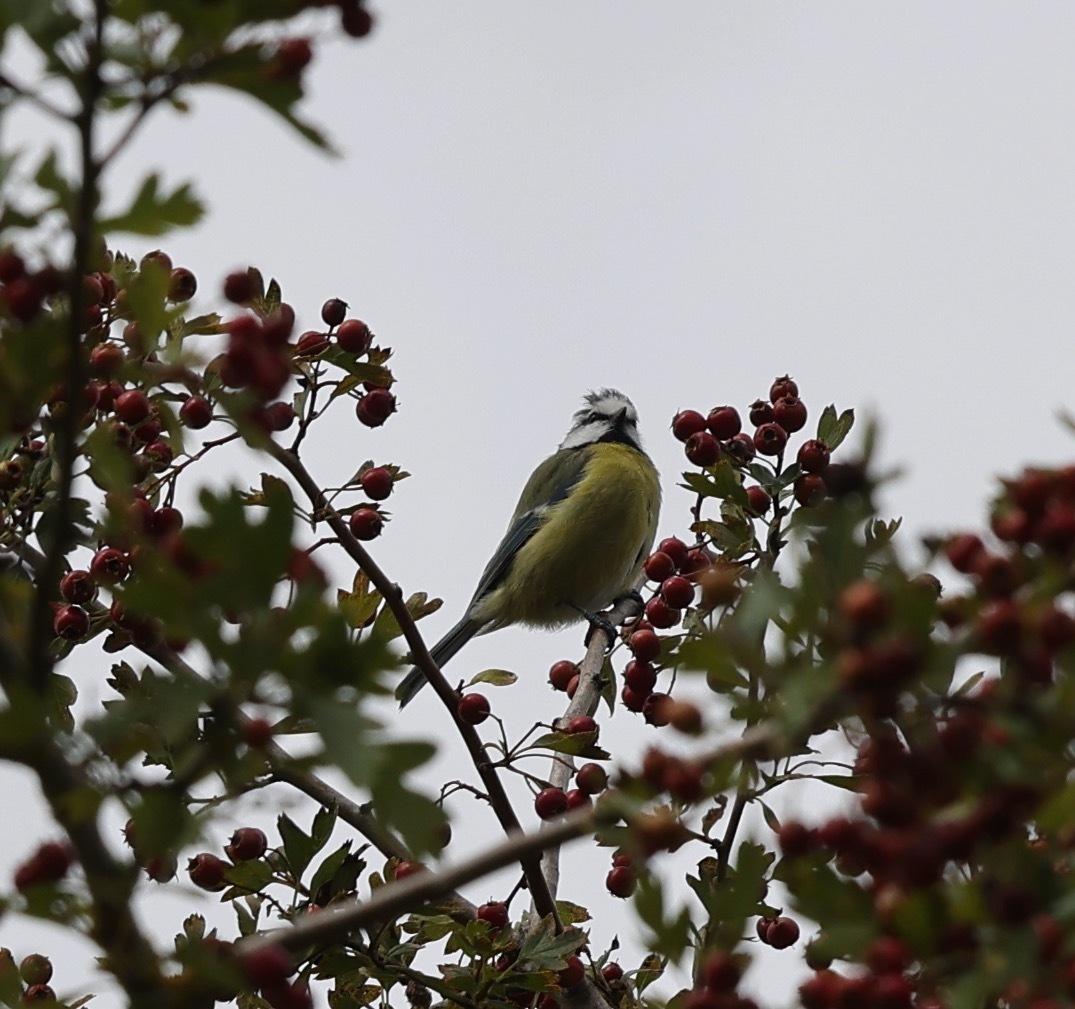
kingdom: Animalia
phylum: Chordata
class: Aves
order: Passeriformes
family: Paridae
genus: Cyanistes
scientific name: Cyanistes caeruleus
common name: Eurasian blue tit
